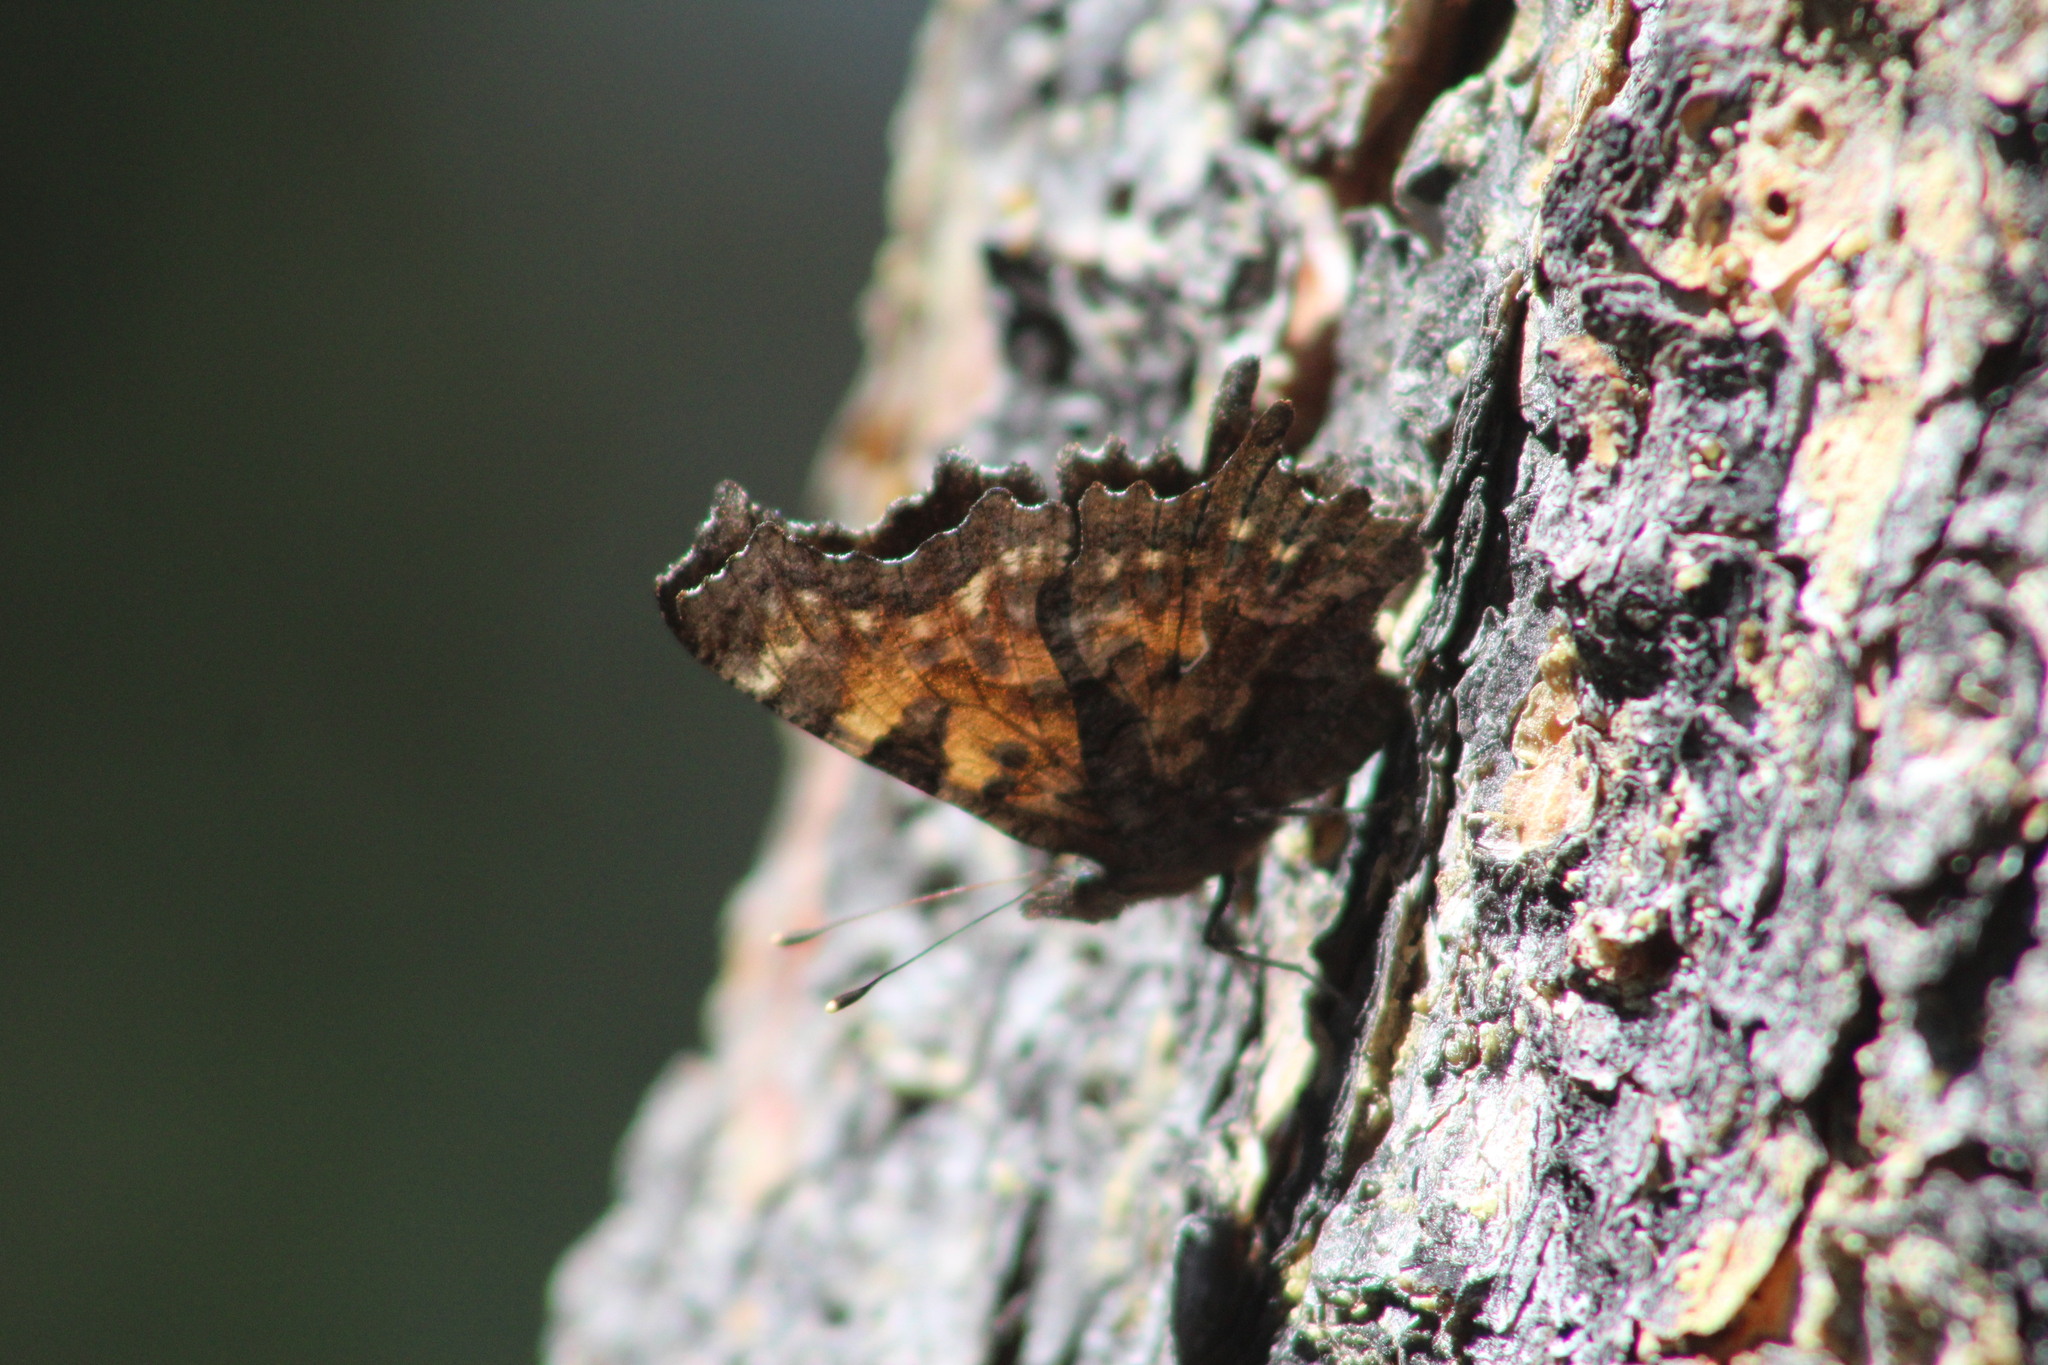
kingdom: Animalia
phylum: Arthropoda
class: Insecta
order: Lepidoptera
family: Nymphalidae
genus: Polygonia
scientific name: Polygonia faunus
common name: Green comma
